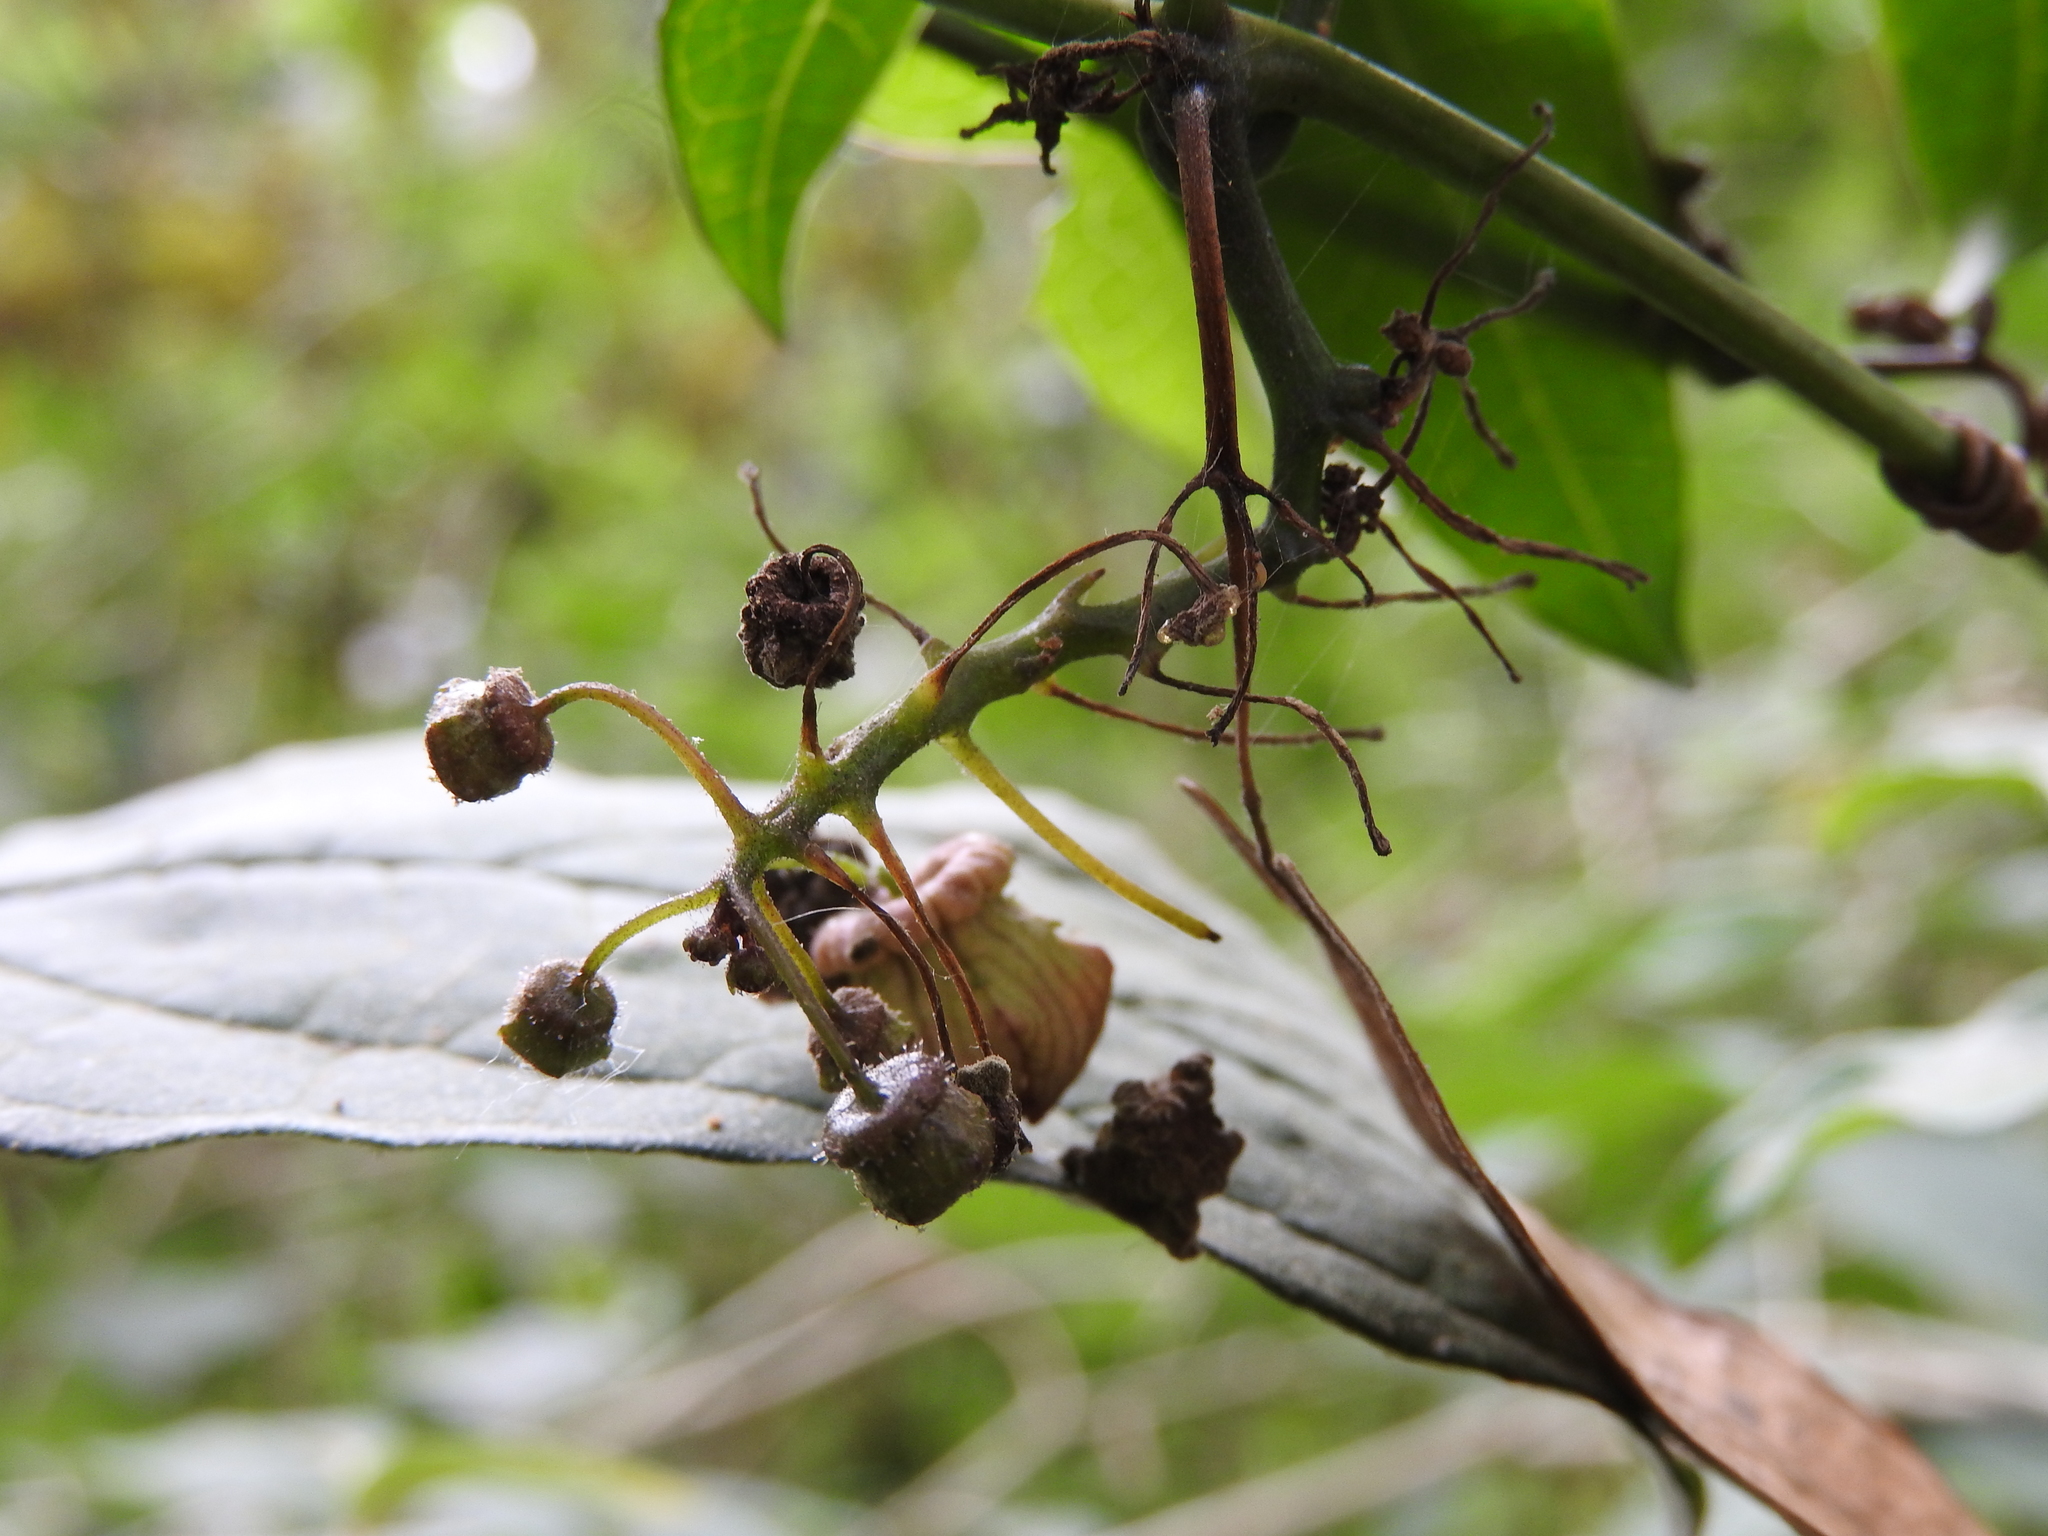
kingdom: Plantae
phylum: Tracheophyta
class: Magnoliopsida
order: Cucurbitales
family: Cucurbitaceae
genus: Cayaponia
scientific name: Cayaponia longiloba
